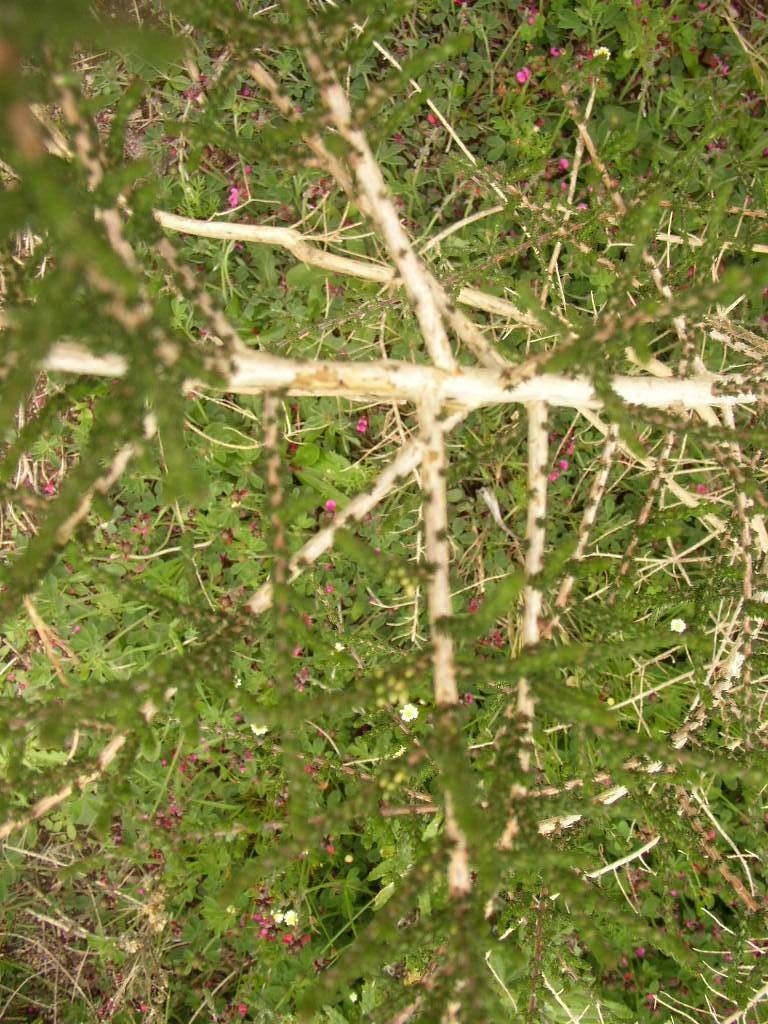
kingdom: Plantae
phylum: Tracheophyta
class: Magnoliopsida
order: Fabales
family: Fabaceae
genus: Aspalathus
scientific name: Aspalathus hispida
